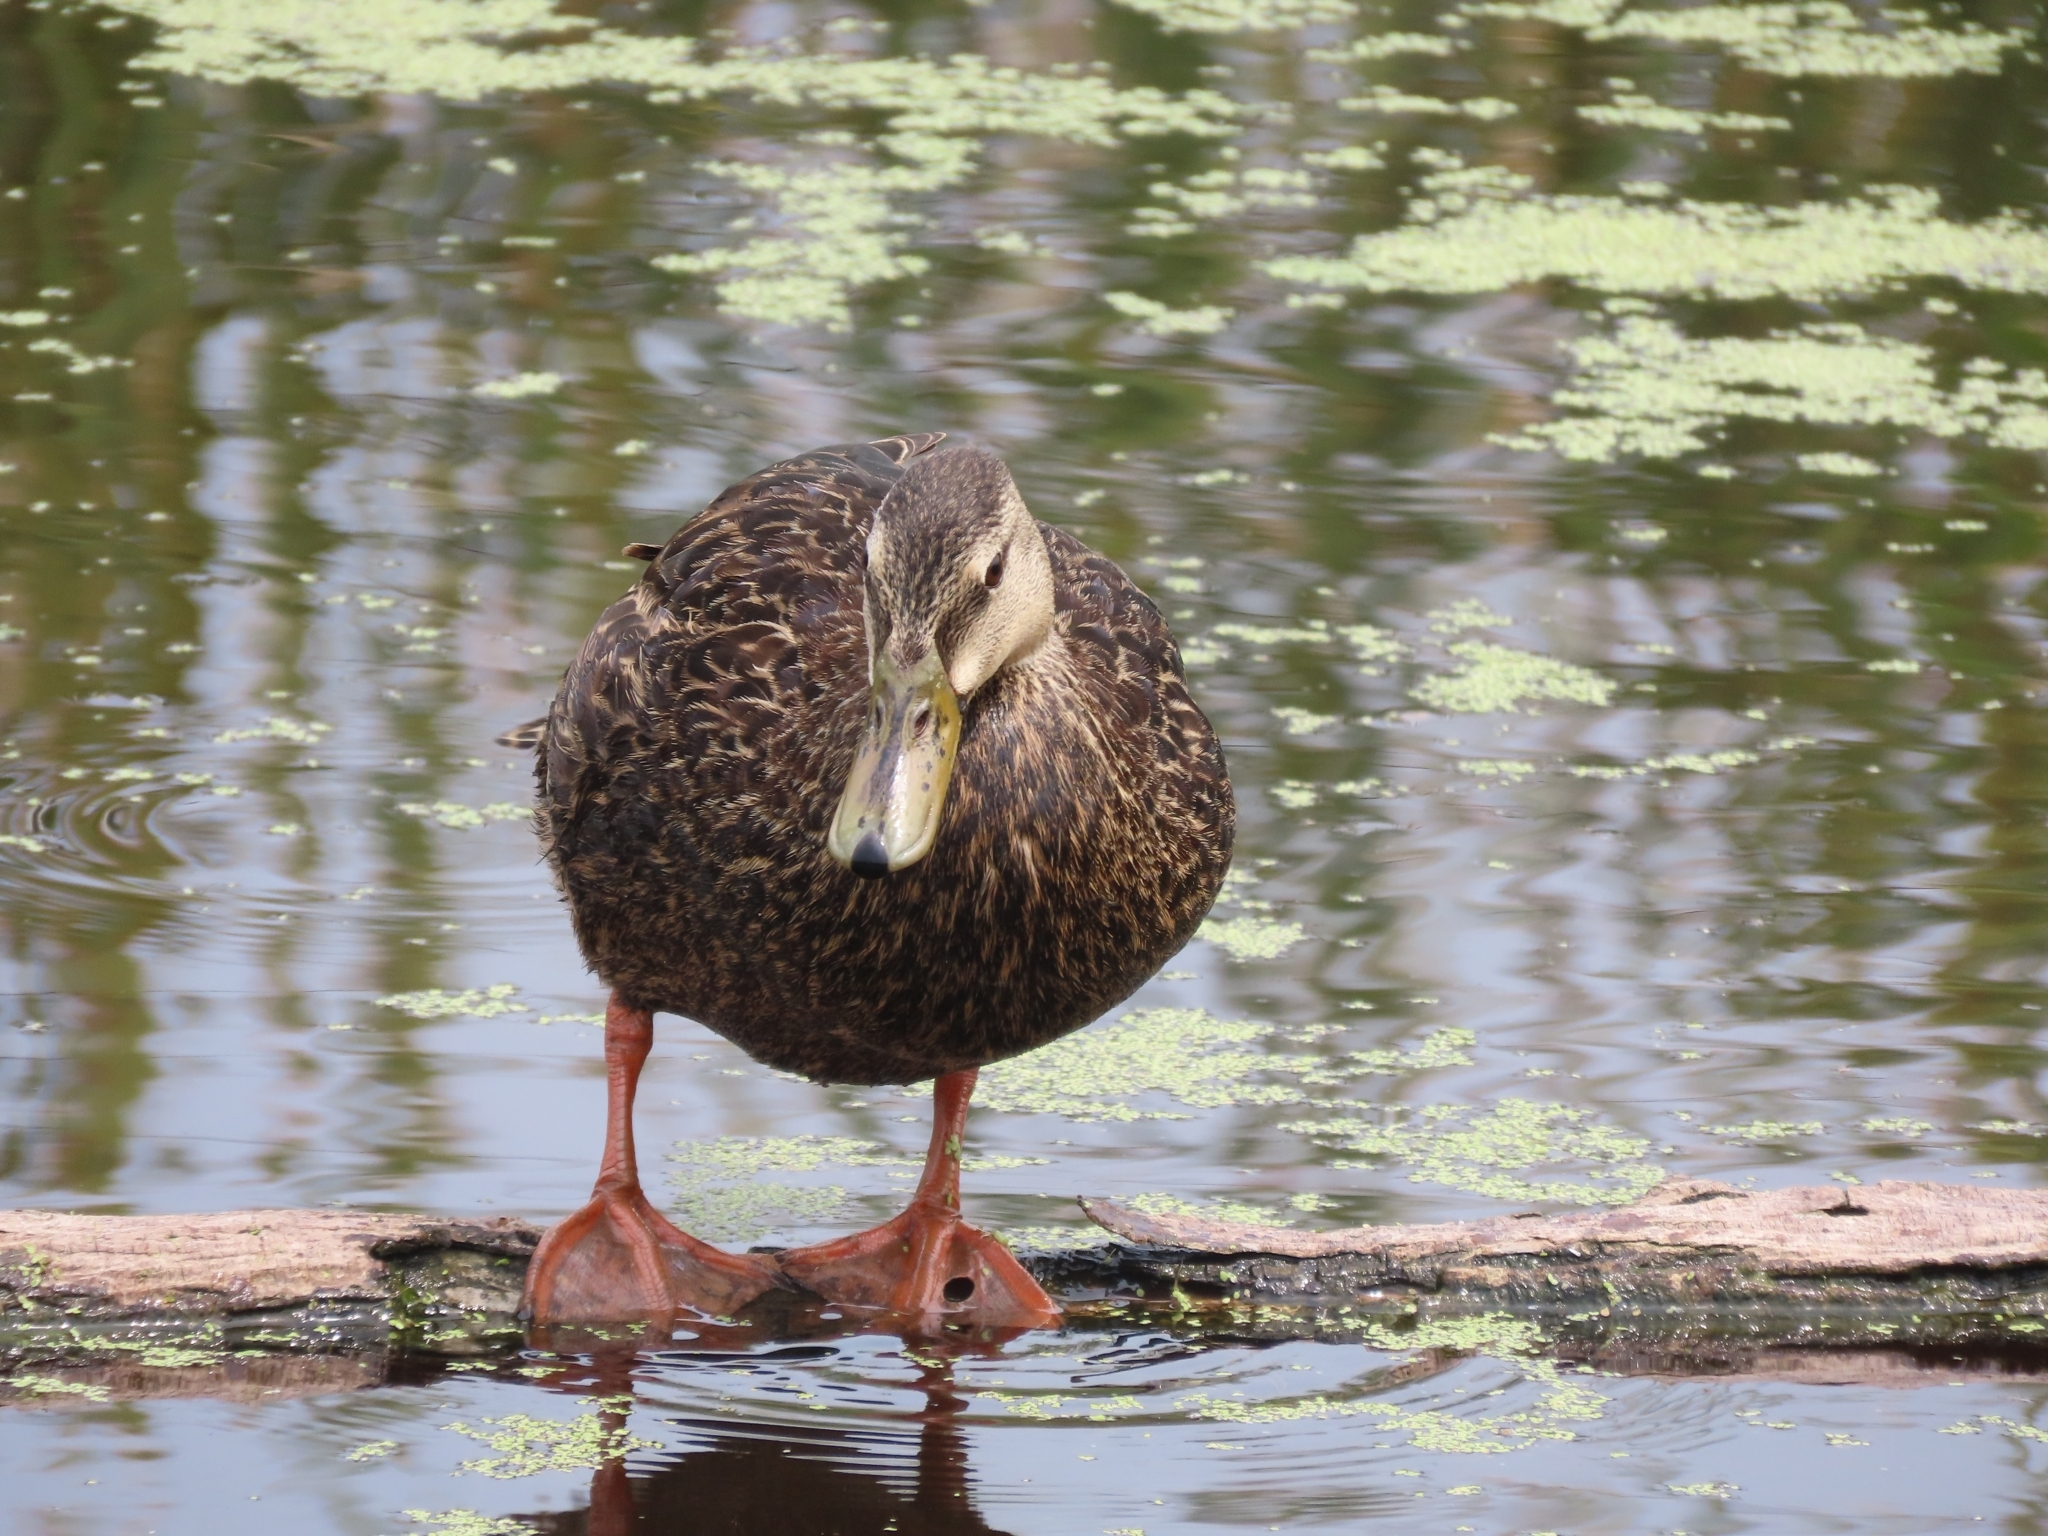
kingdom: Animalia
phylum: Chordata
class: Aves
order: Anseriformes
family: Anatidae
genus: Anas
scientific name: Anas fulvigula
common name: Mottled duck
